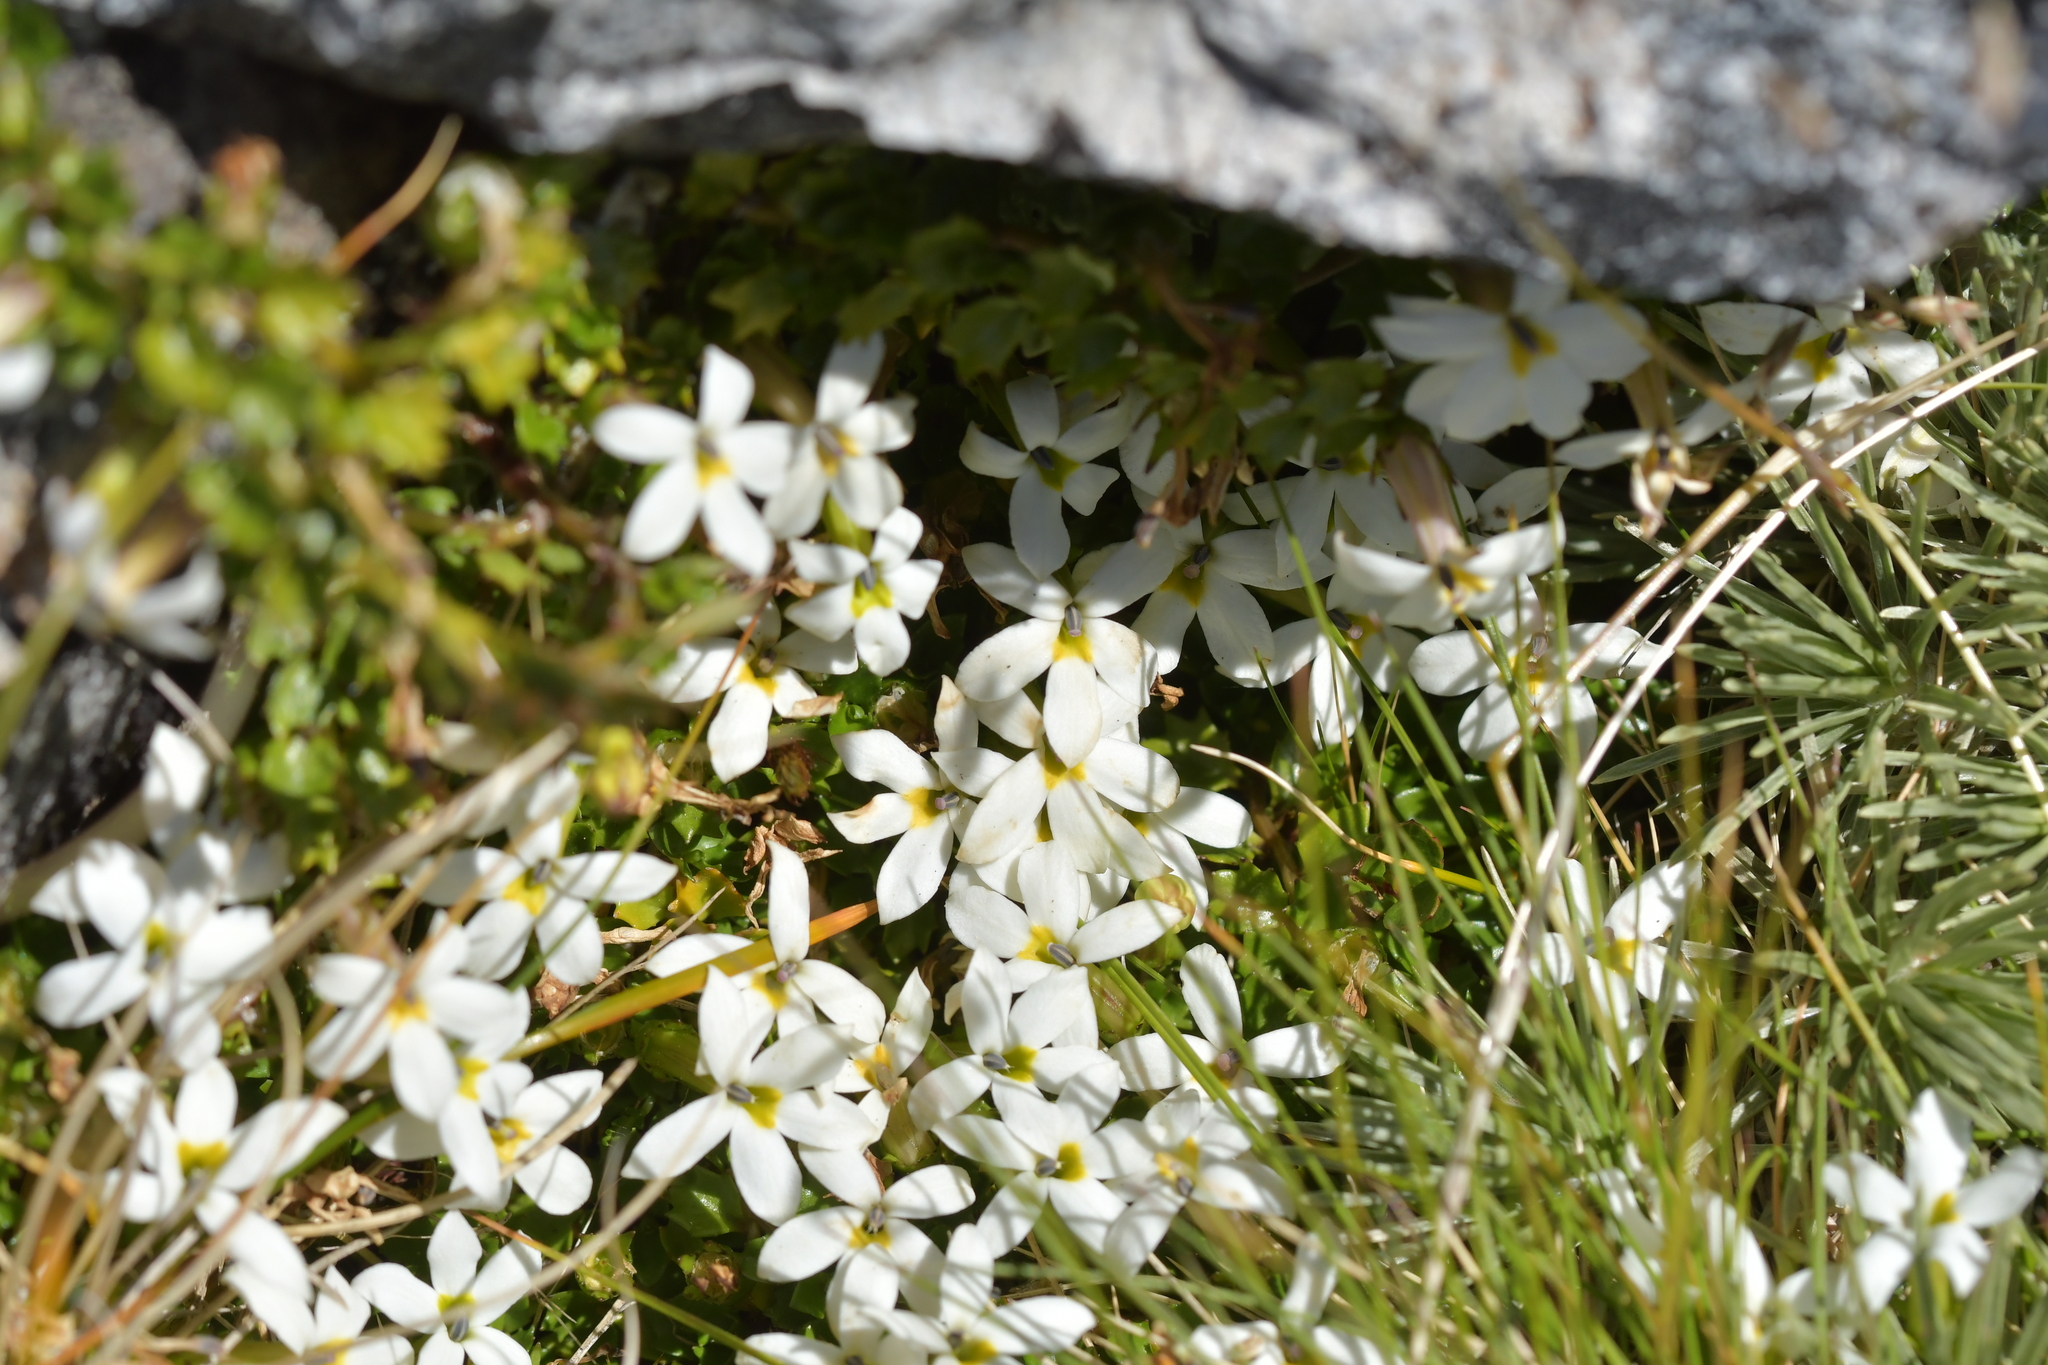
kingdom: Plantae
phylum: Tracheophyta
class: Magnoliopsida
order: Asterales
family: Campanulaceae
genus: Lobelia
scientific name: Lobelia macrodon
